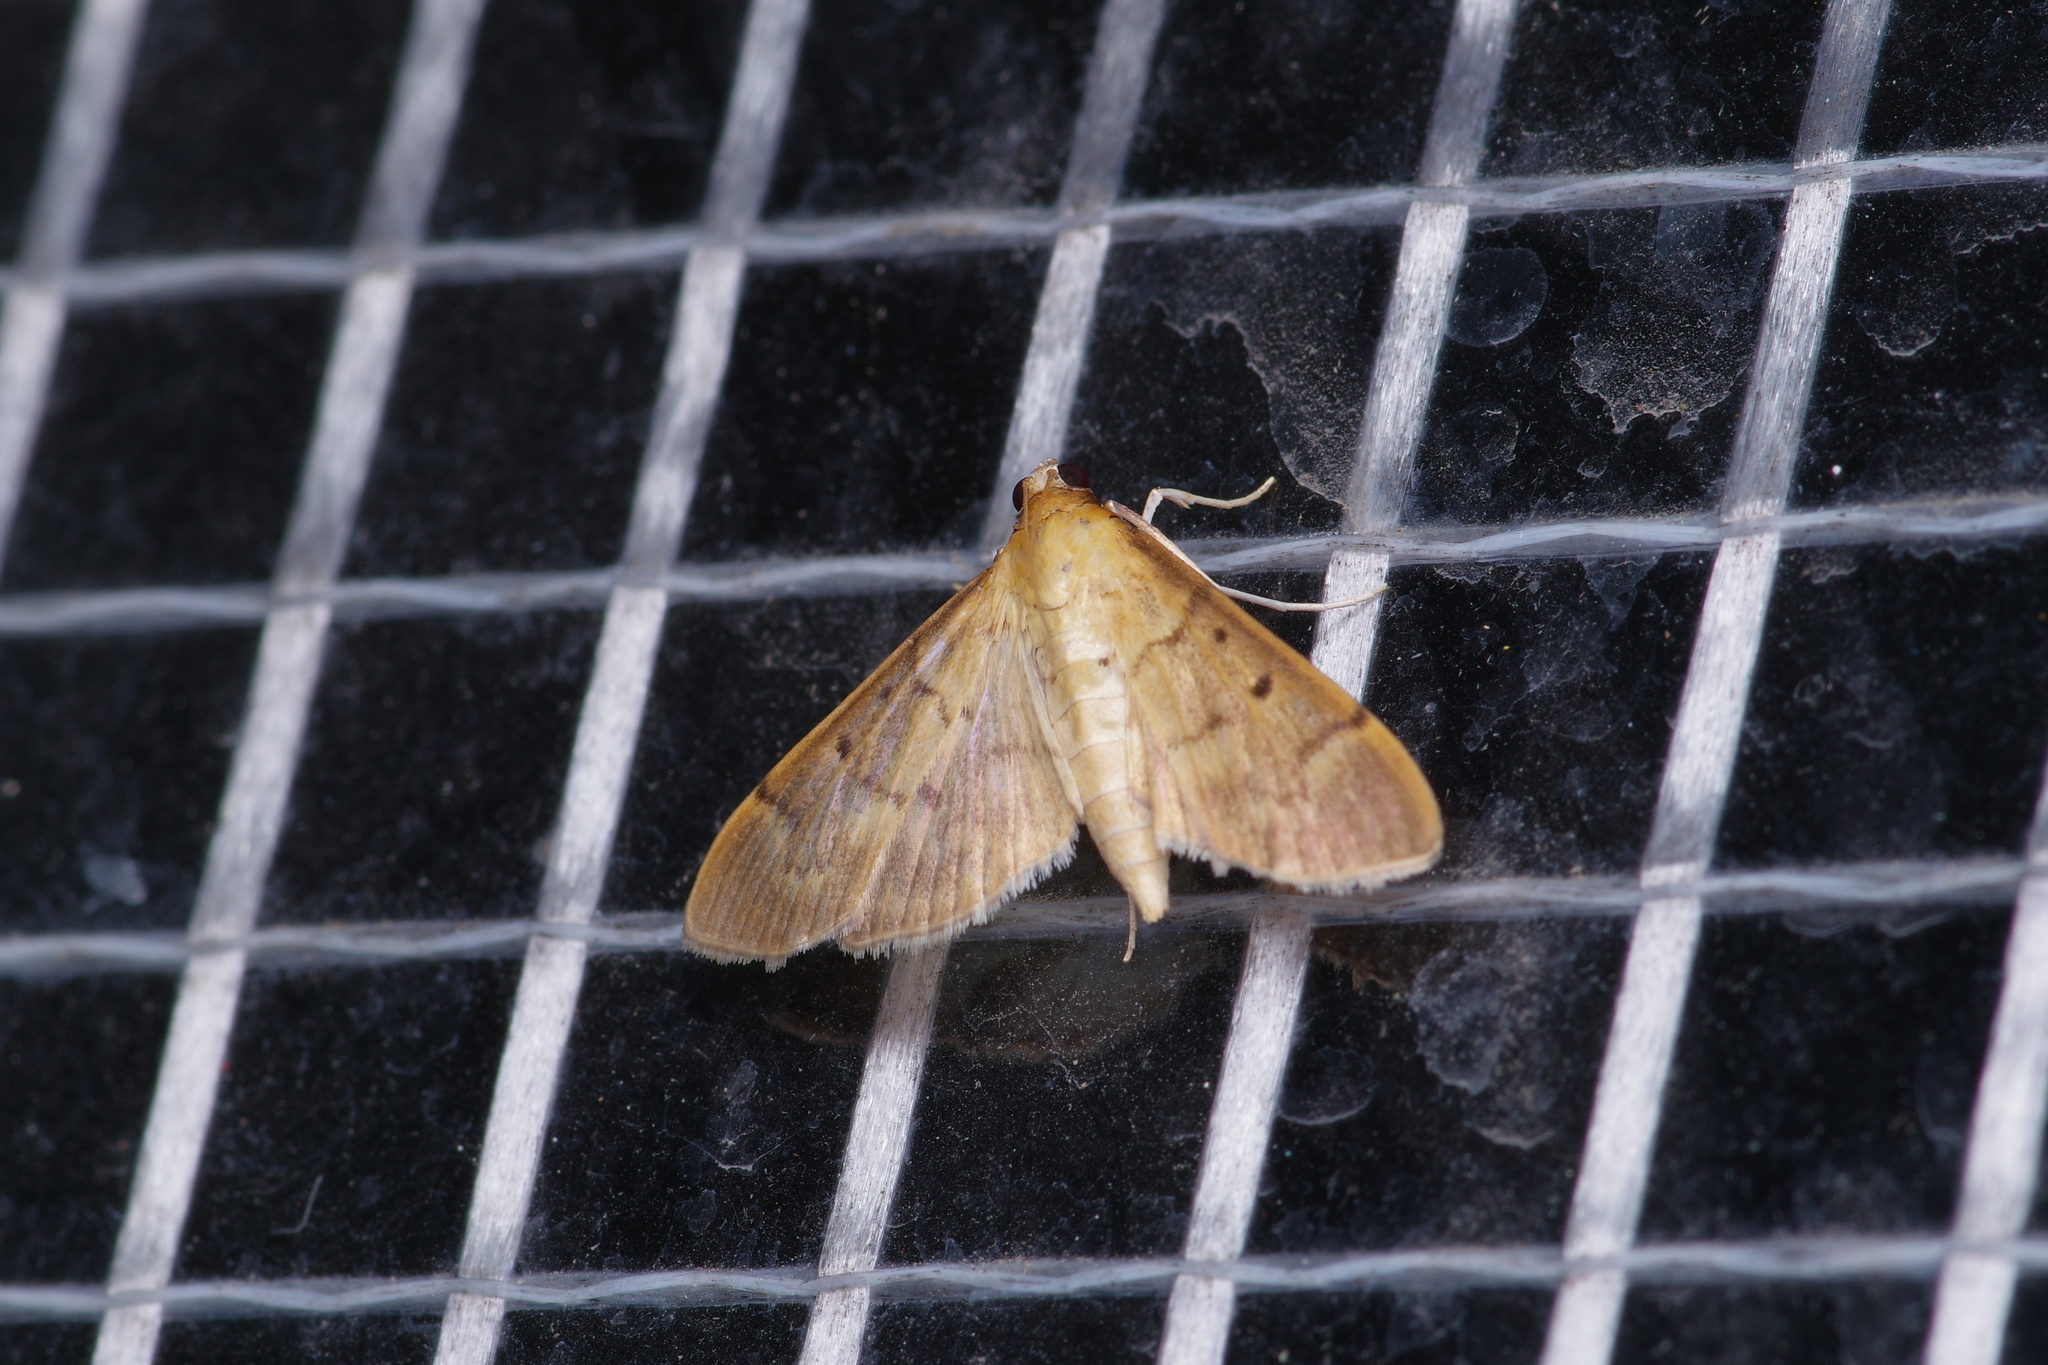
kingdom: Animalia
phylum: Arthropoda
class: Insecta
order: Lepidoptera
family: Crambidae
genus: Herpetogramma
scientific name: Herpetogramma bipunctalis
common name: Southern beet webworm
